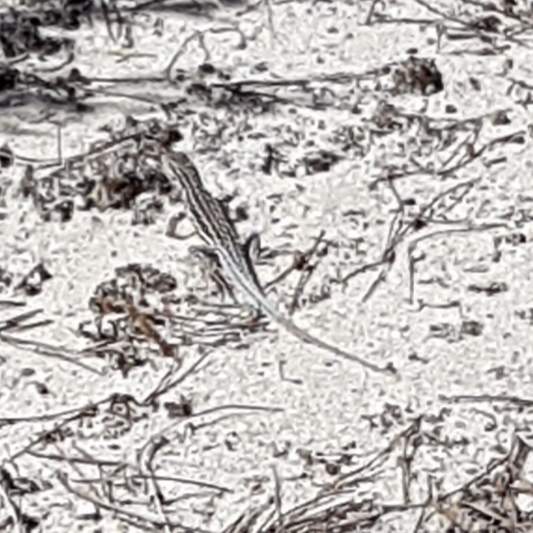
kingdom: Animalia
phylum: Chordata
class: Squamata
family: Lacertidae
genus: Acanthodactylus
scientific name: Acanthodactylus erythrurus
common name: Spiny-footed lizard
